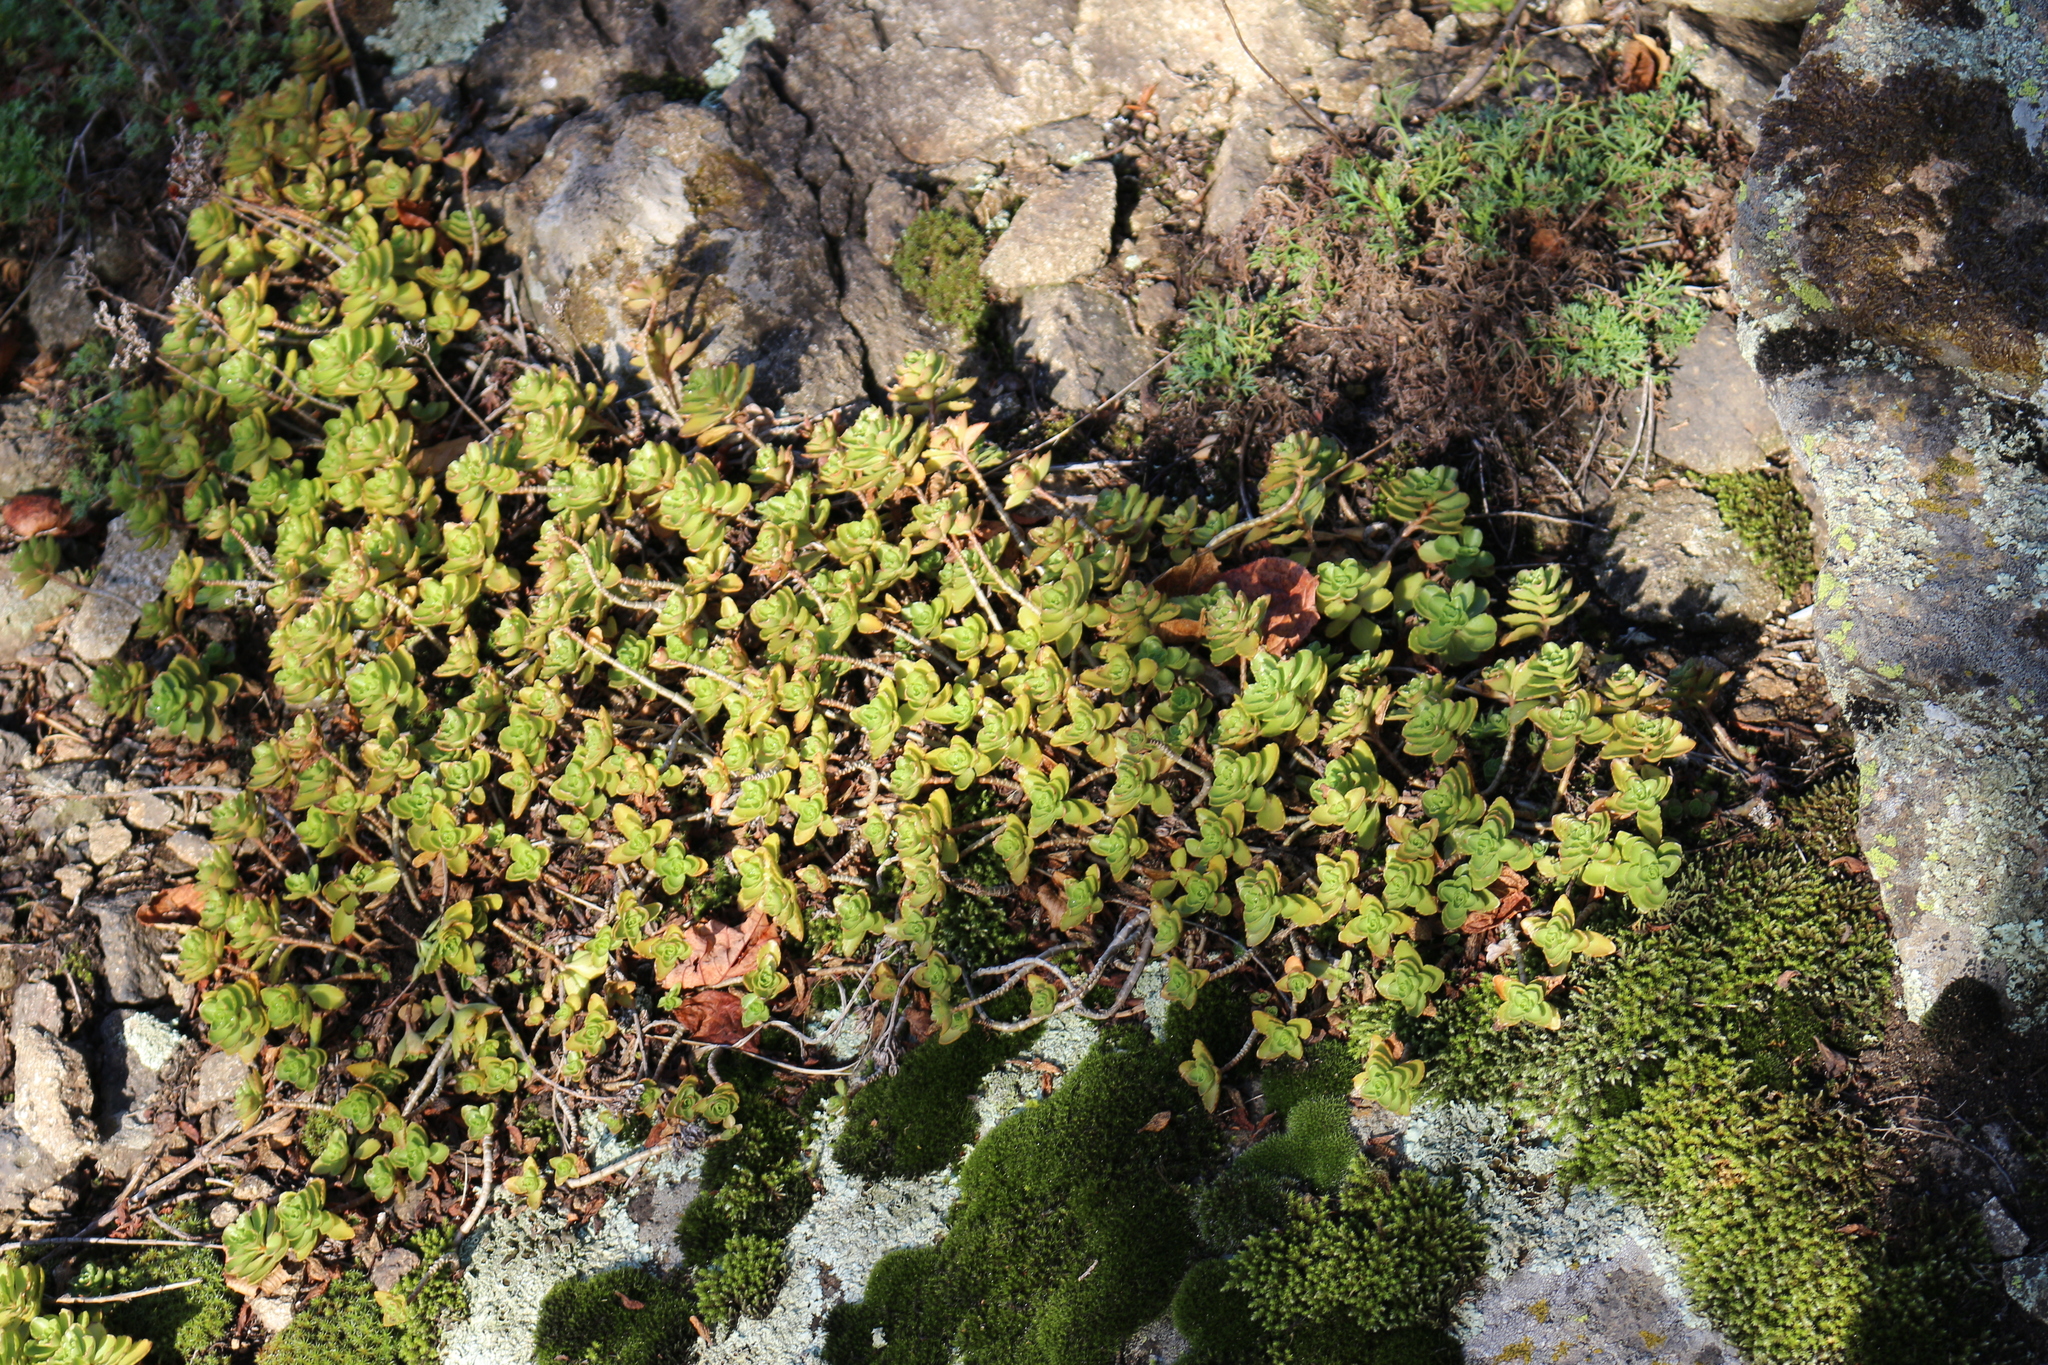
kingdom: Plantae
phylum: Tracheophyta
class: Magnoliopsida
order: Saxifragales
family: Crassulaceae
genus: Phedimus
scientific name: Phedimus spurius
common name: Caucasian stonecrop
